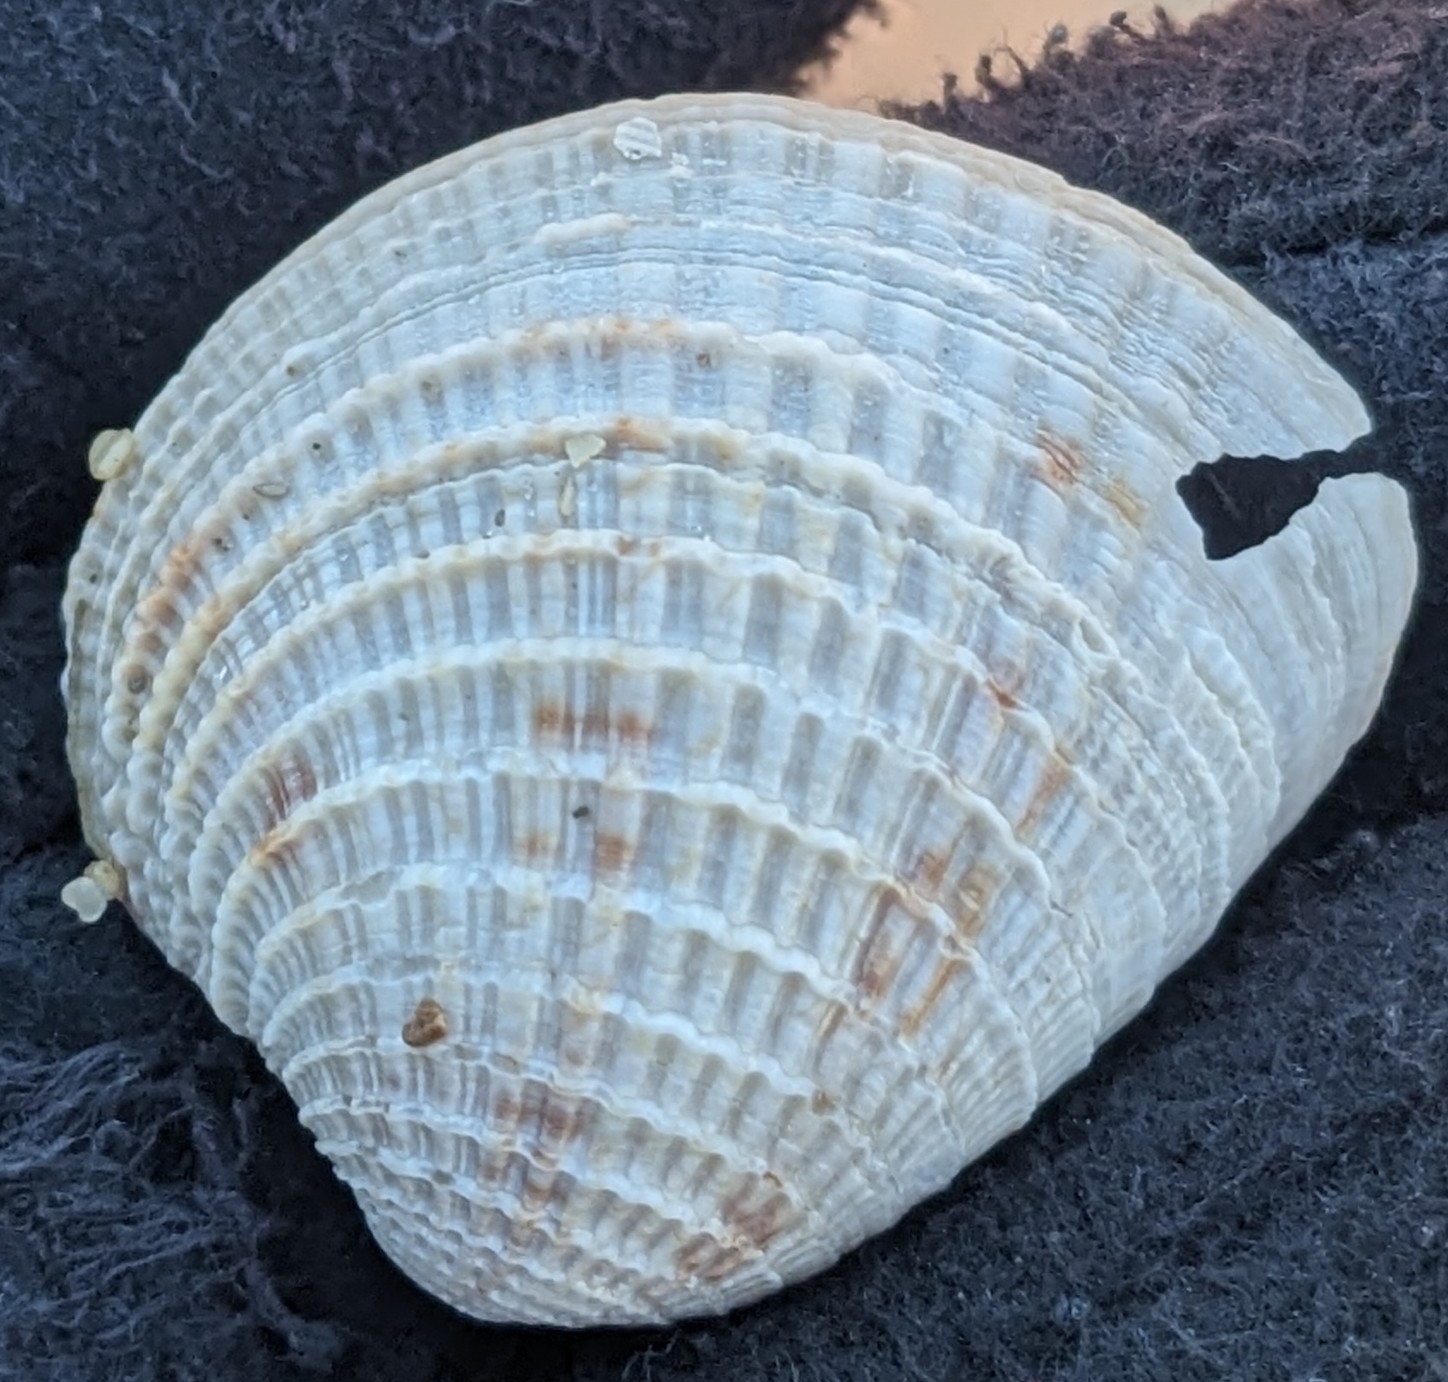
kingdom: Animalia
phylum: Mollusca
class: Bivalvia
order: Venerida
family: Veneridae
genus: Chione
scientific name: Chione elevata
